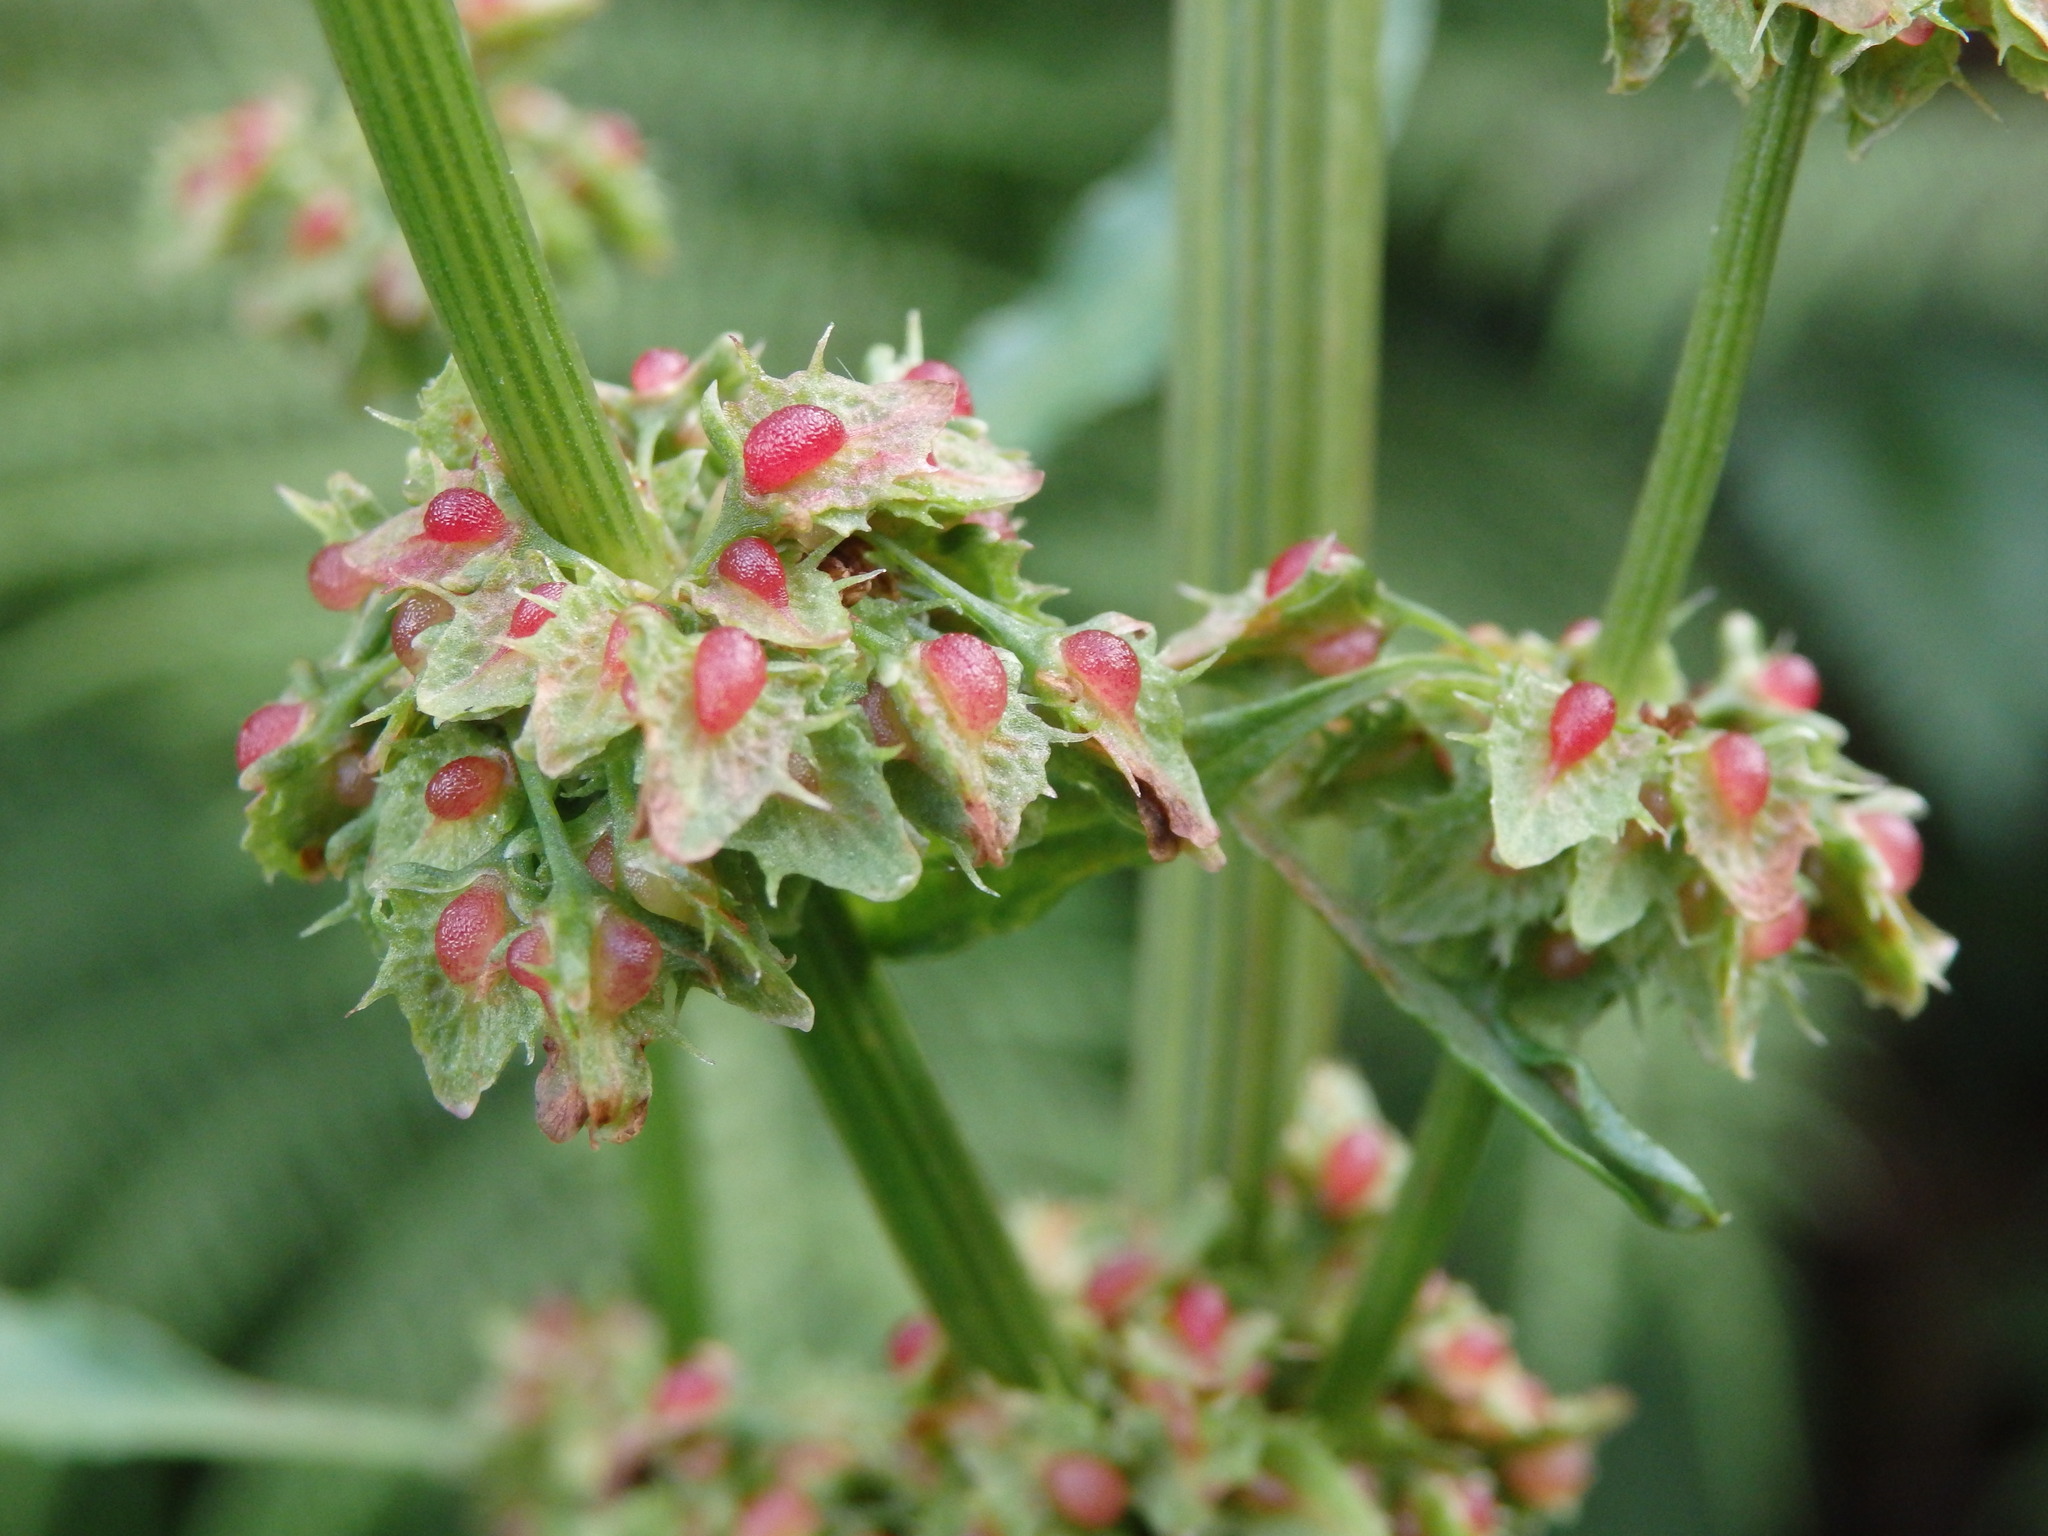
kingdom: Plantae
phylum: Tracheophyta
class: Magnoliopsida
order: Caryophyllales
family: Polygonaceae
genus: Rumex
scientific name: Rumex obtusifolius
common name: Bitter dock
